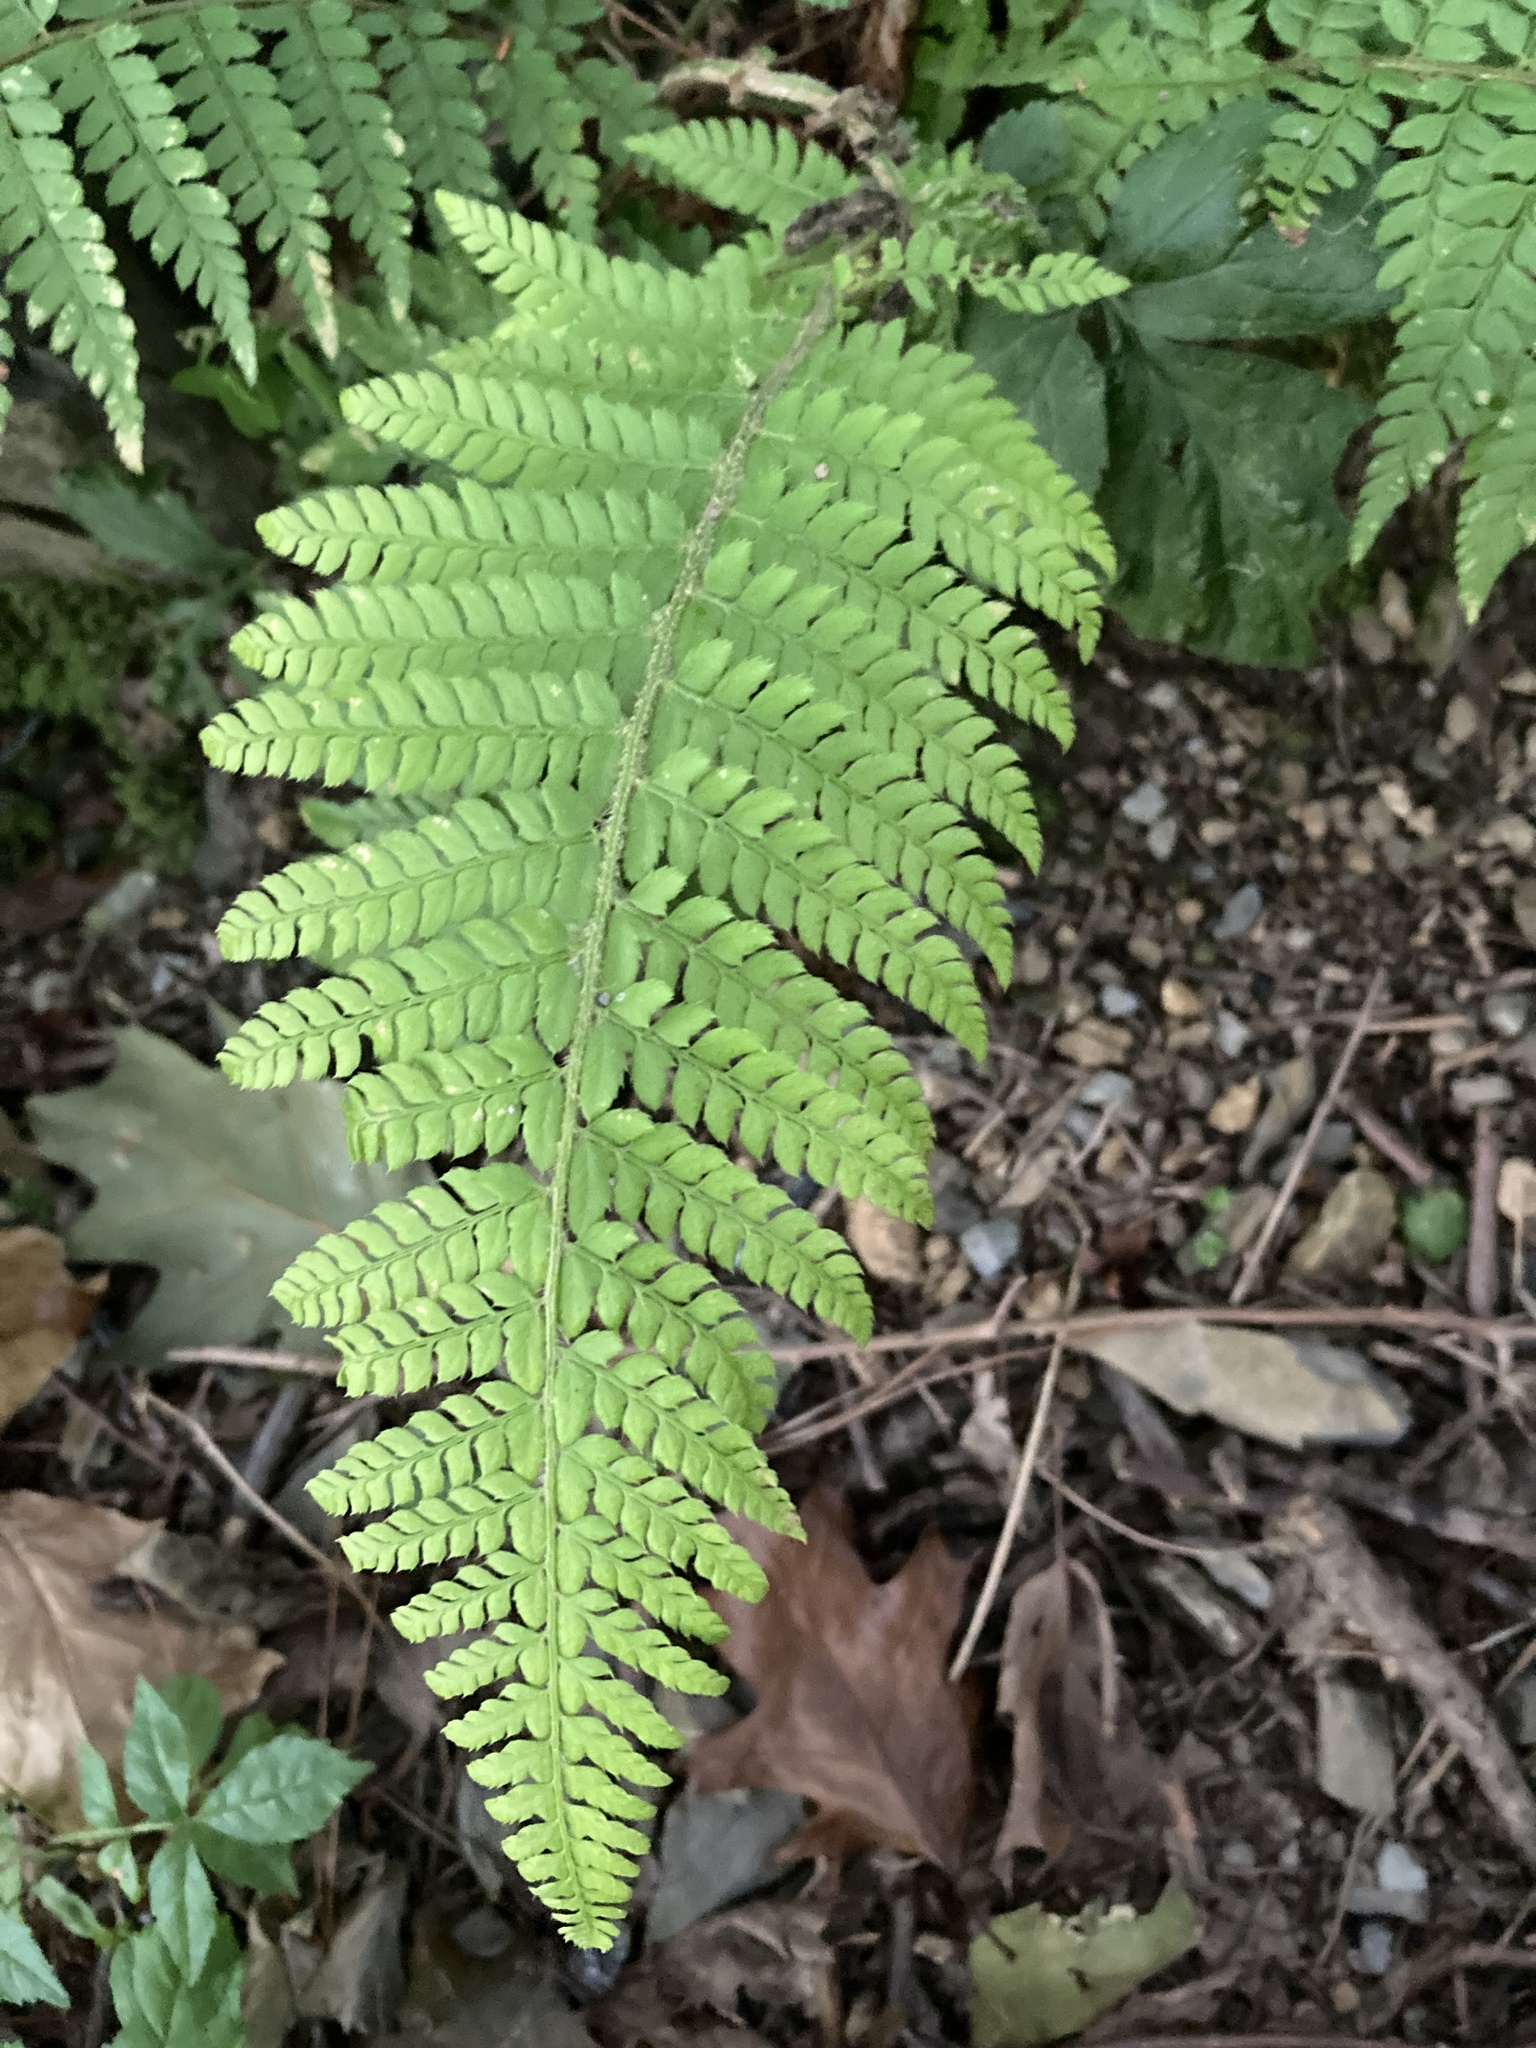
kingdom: Plantae
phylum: Tracheophyta
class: Polypodiopsida
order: Polypodiales
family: Dryopteridaceae
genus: Polystichum
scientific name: Polystichum setiferum
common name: Soft shield-fern
